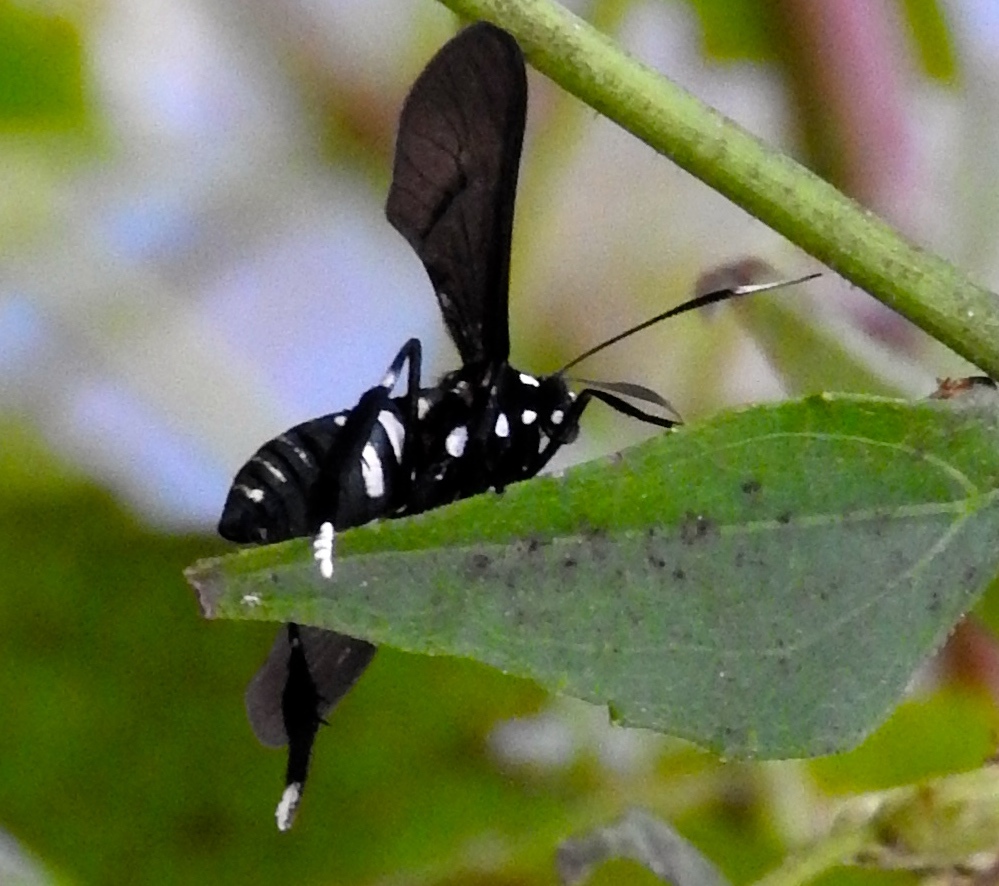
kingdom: Animalia
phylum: Arthropoda
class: Insecta
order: Lepidoptera
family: Erebidae
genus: Horama
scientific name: Horama plumipes
